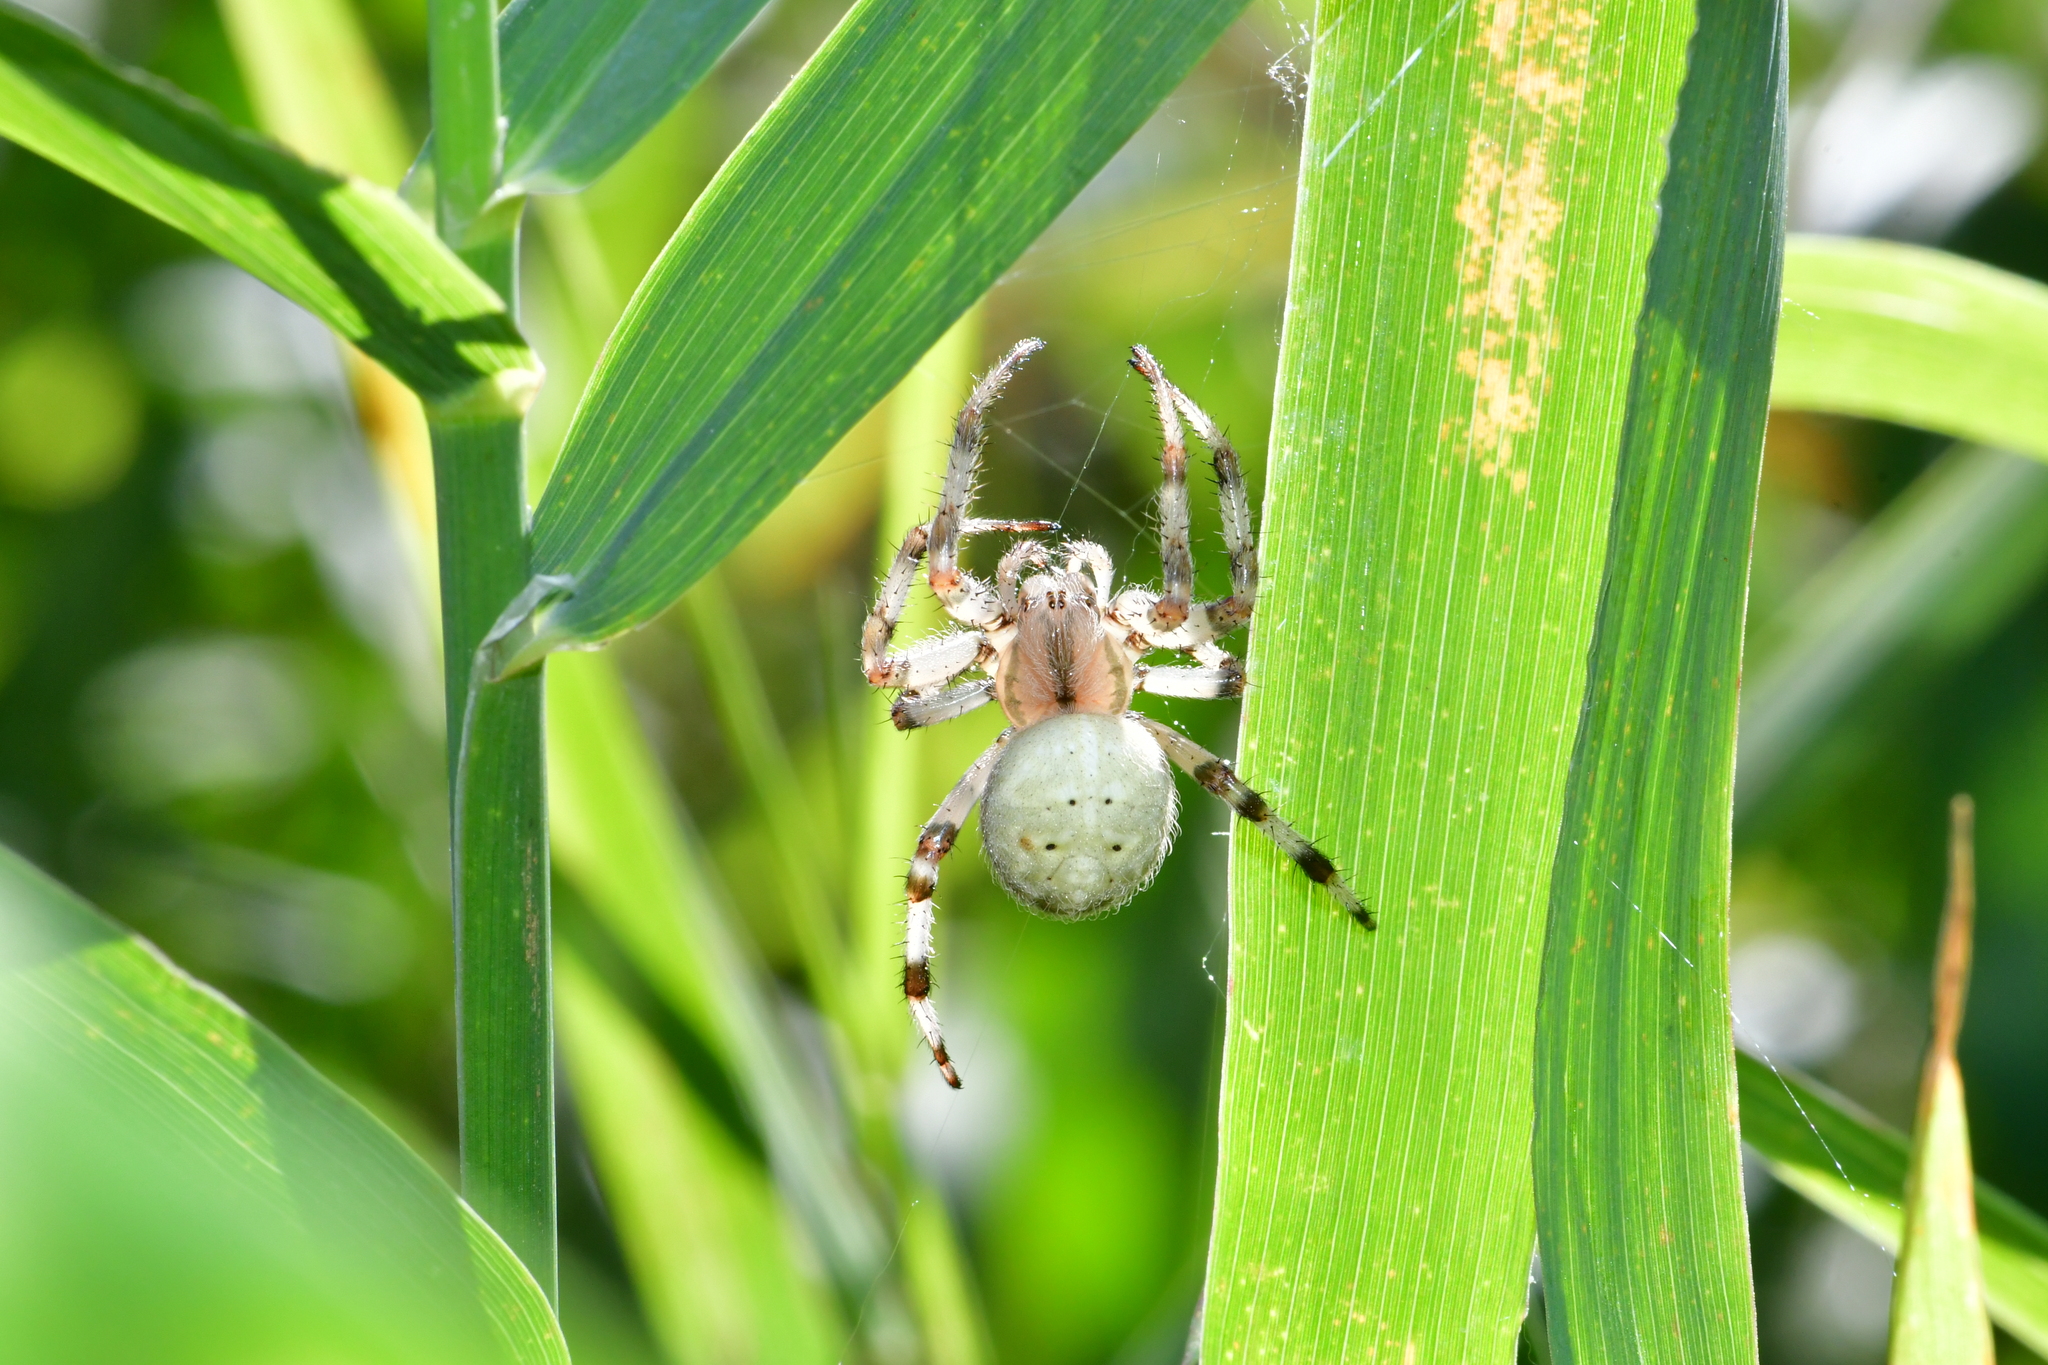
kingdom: Animalia
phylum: Arthropoda
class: Arachnida
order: Araneae
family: Araneidae
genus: Araneus
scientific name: Araneus quadratus
